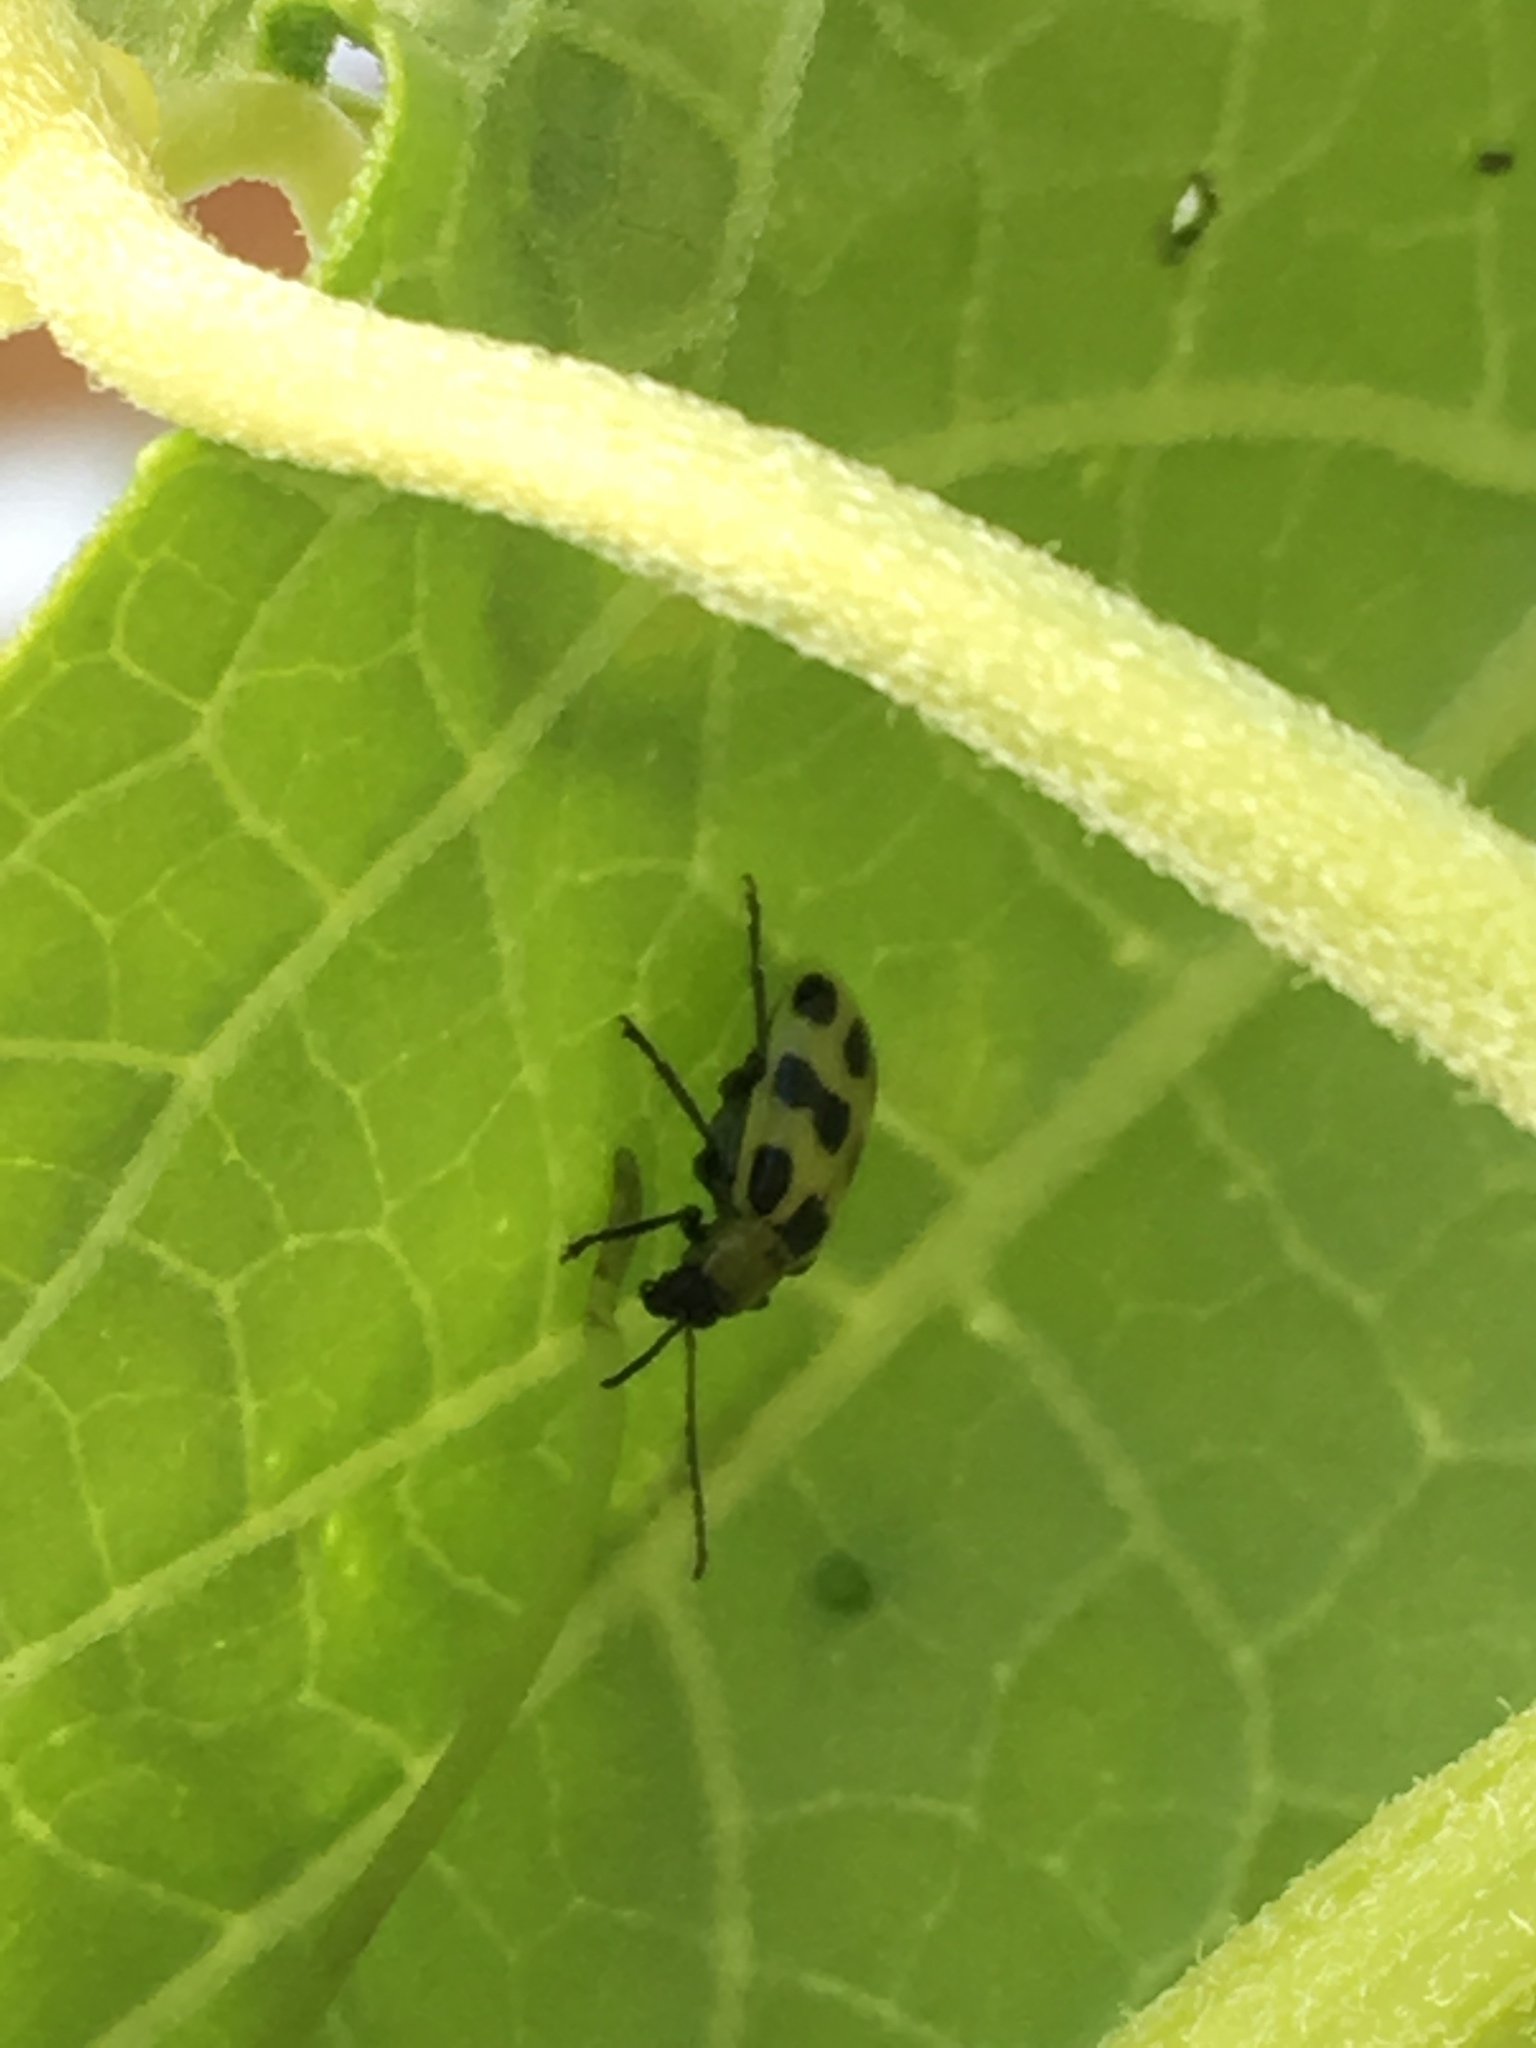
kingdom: Animalia
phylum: Arthropoda
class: Insecta
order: Coleoptera
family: Chrysomelidae
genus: Diabrotica
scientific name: Diabrotica undecimpunctata
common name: Spotted cucumber beetle
